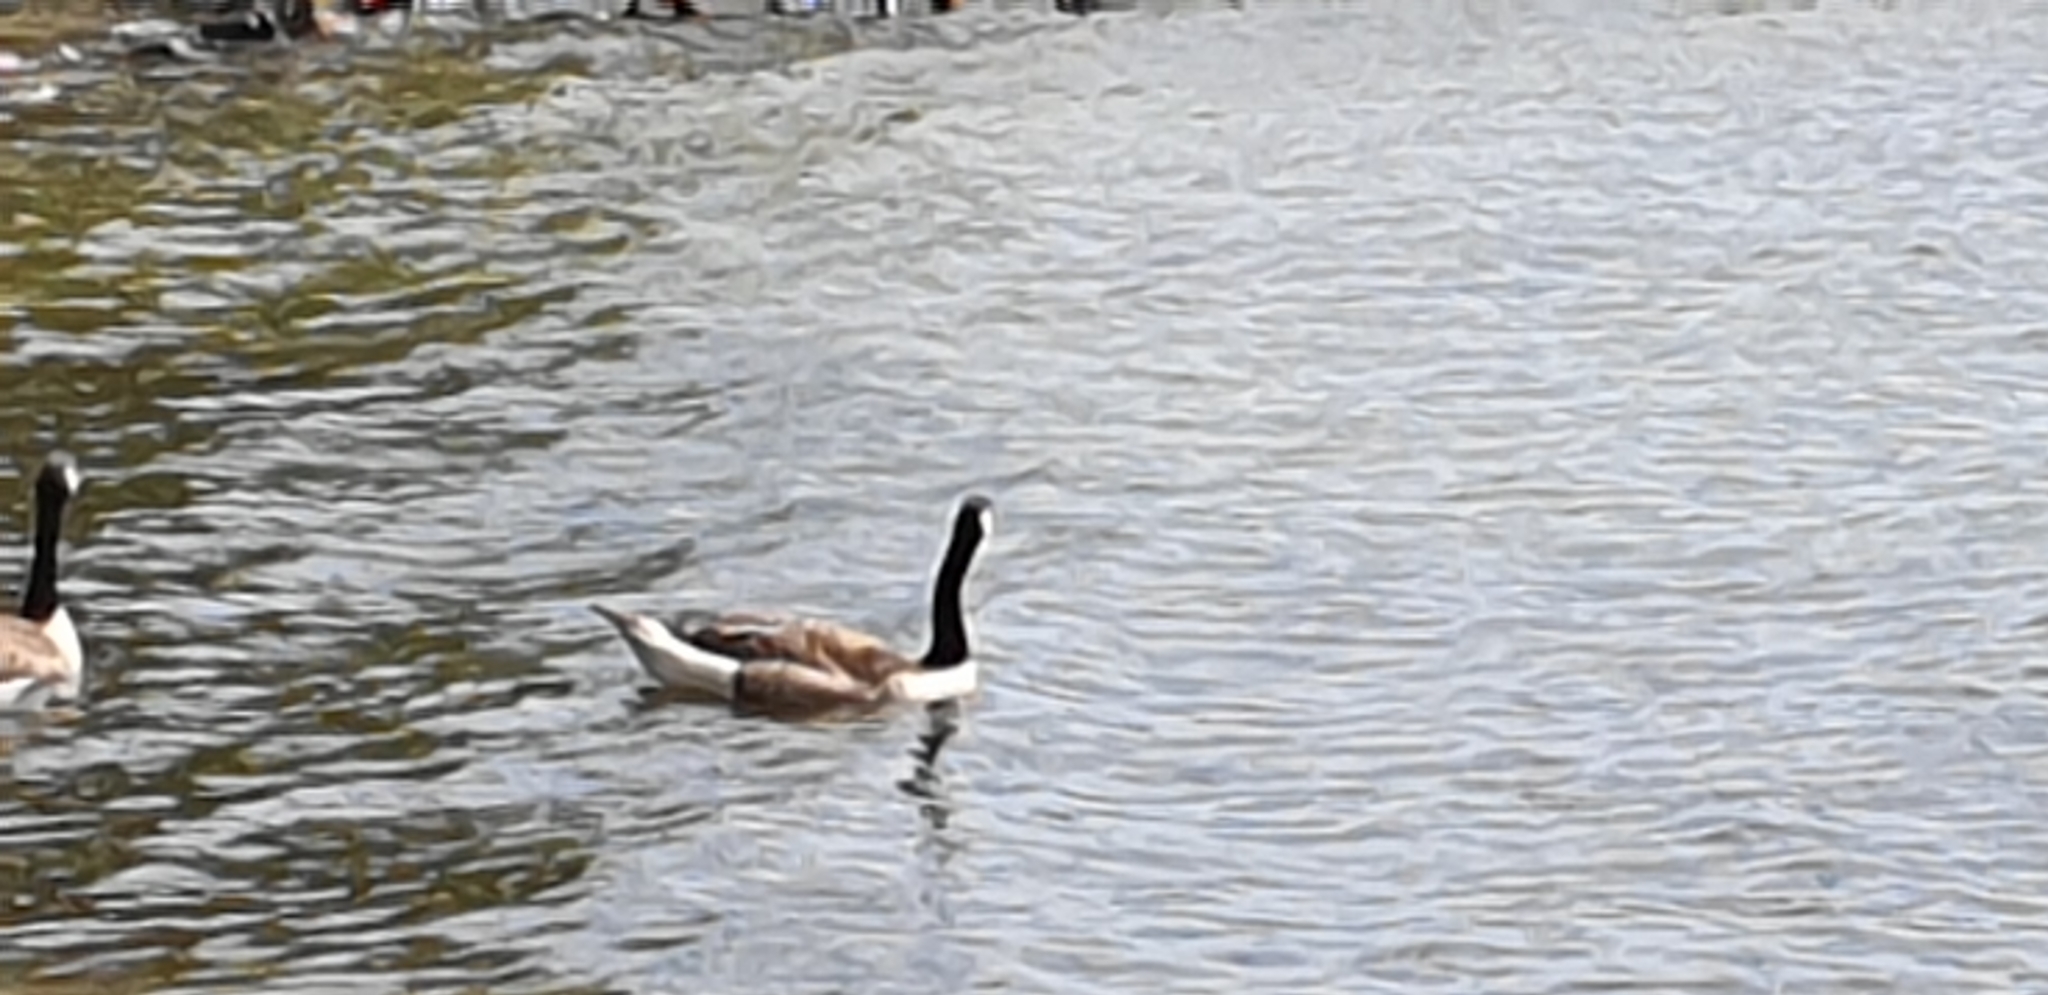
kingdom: Animalia
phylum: Chordata
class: Aves
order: Anseriformes
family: Anatidae
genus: Branta
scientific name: Branta canadensis
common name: Canada goose
